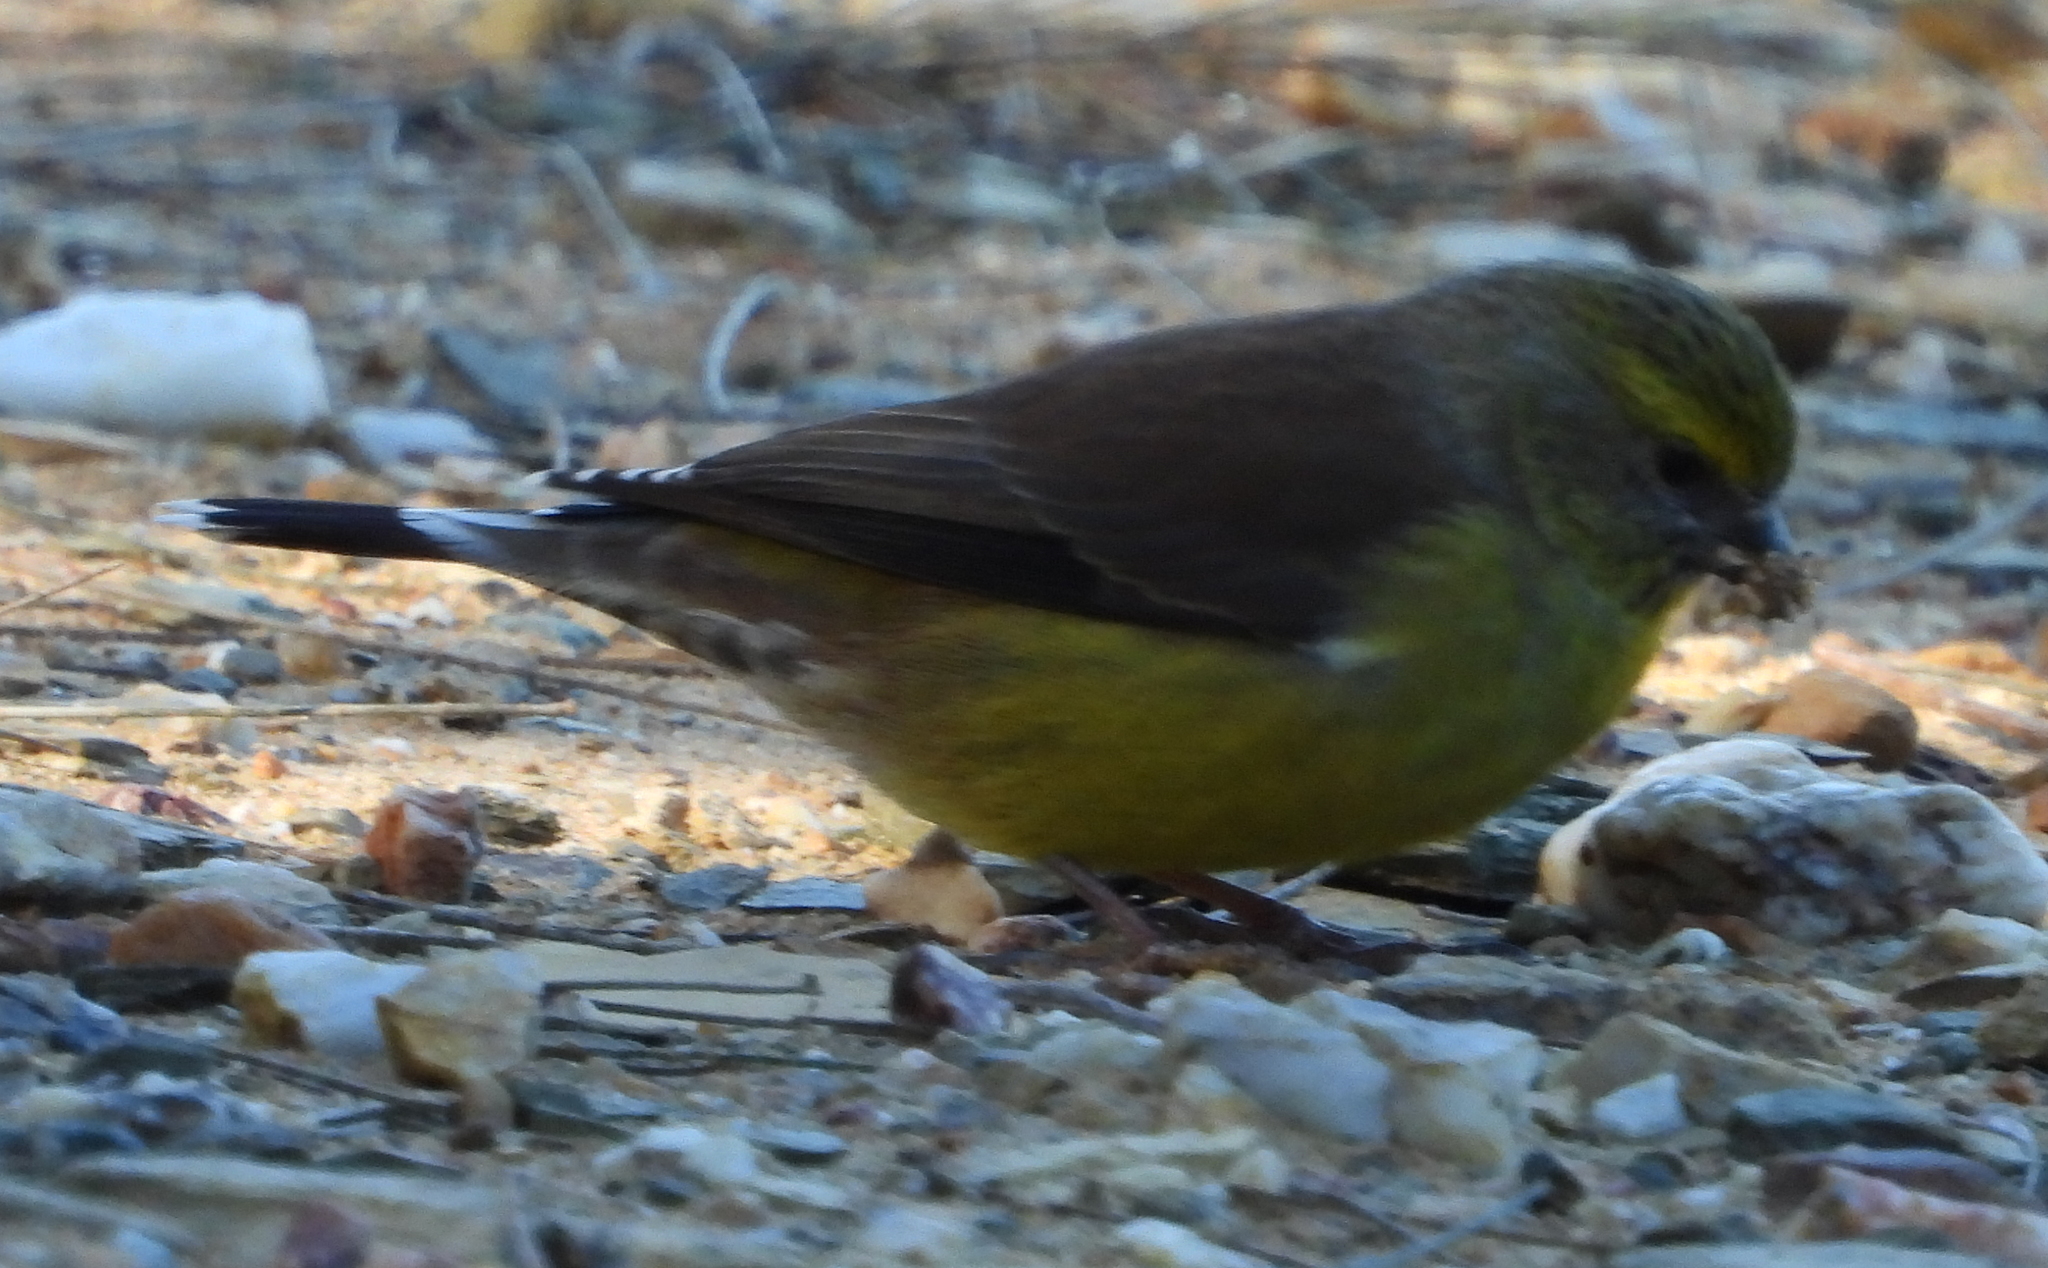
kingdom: Animalia
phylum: Chordata
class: Aves
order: Passeriformes
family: Fringillidae
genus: Crithagra
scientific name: Crithagra totta
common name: Cape siskin
